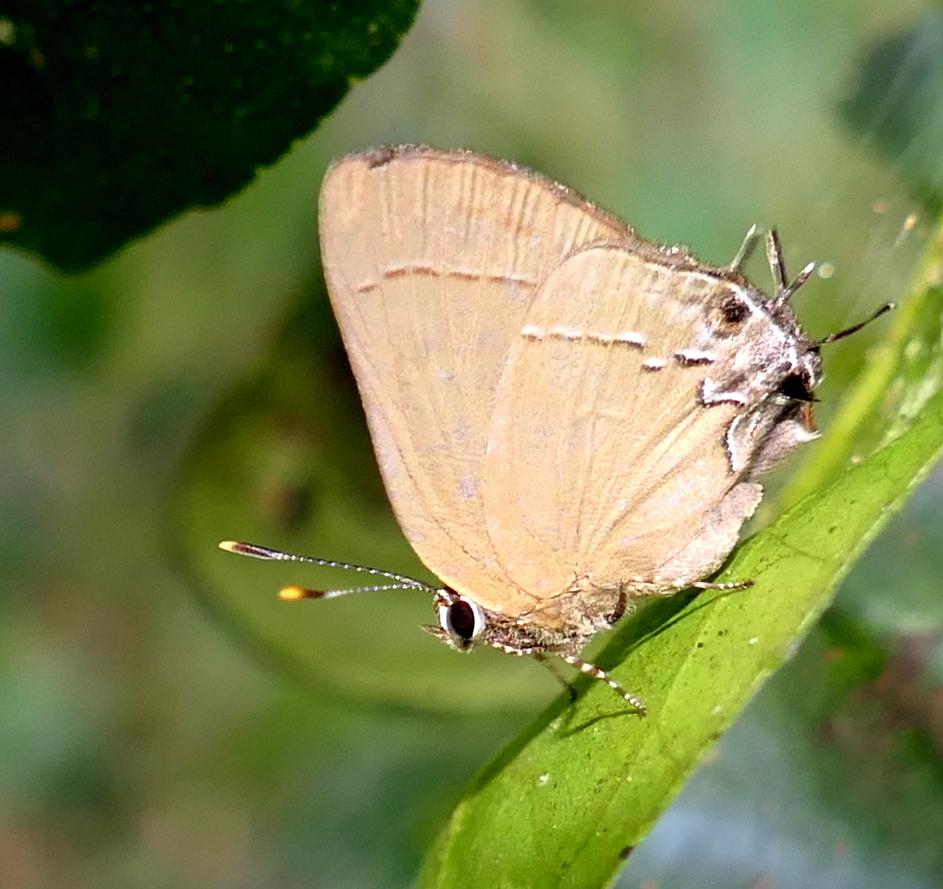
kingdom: Animalia
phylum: Arthropoda
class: Insecta
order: Lepidoptera
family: Lycaenidae
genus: Ziegleria
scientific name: Ziegleria hesperitis
